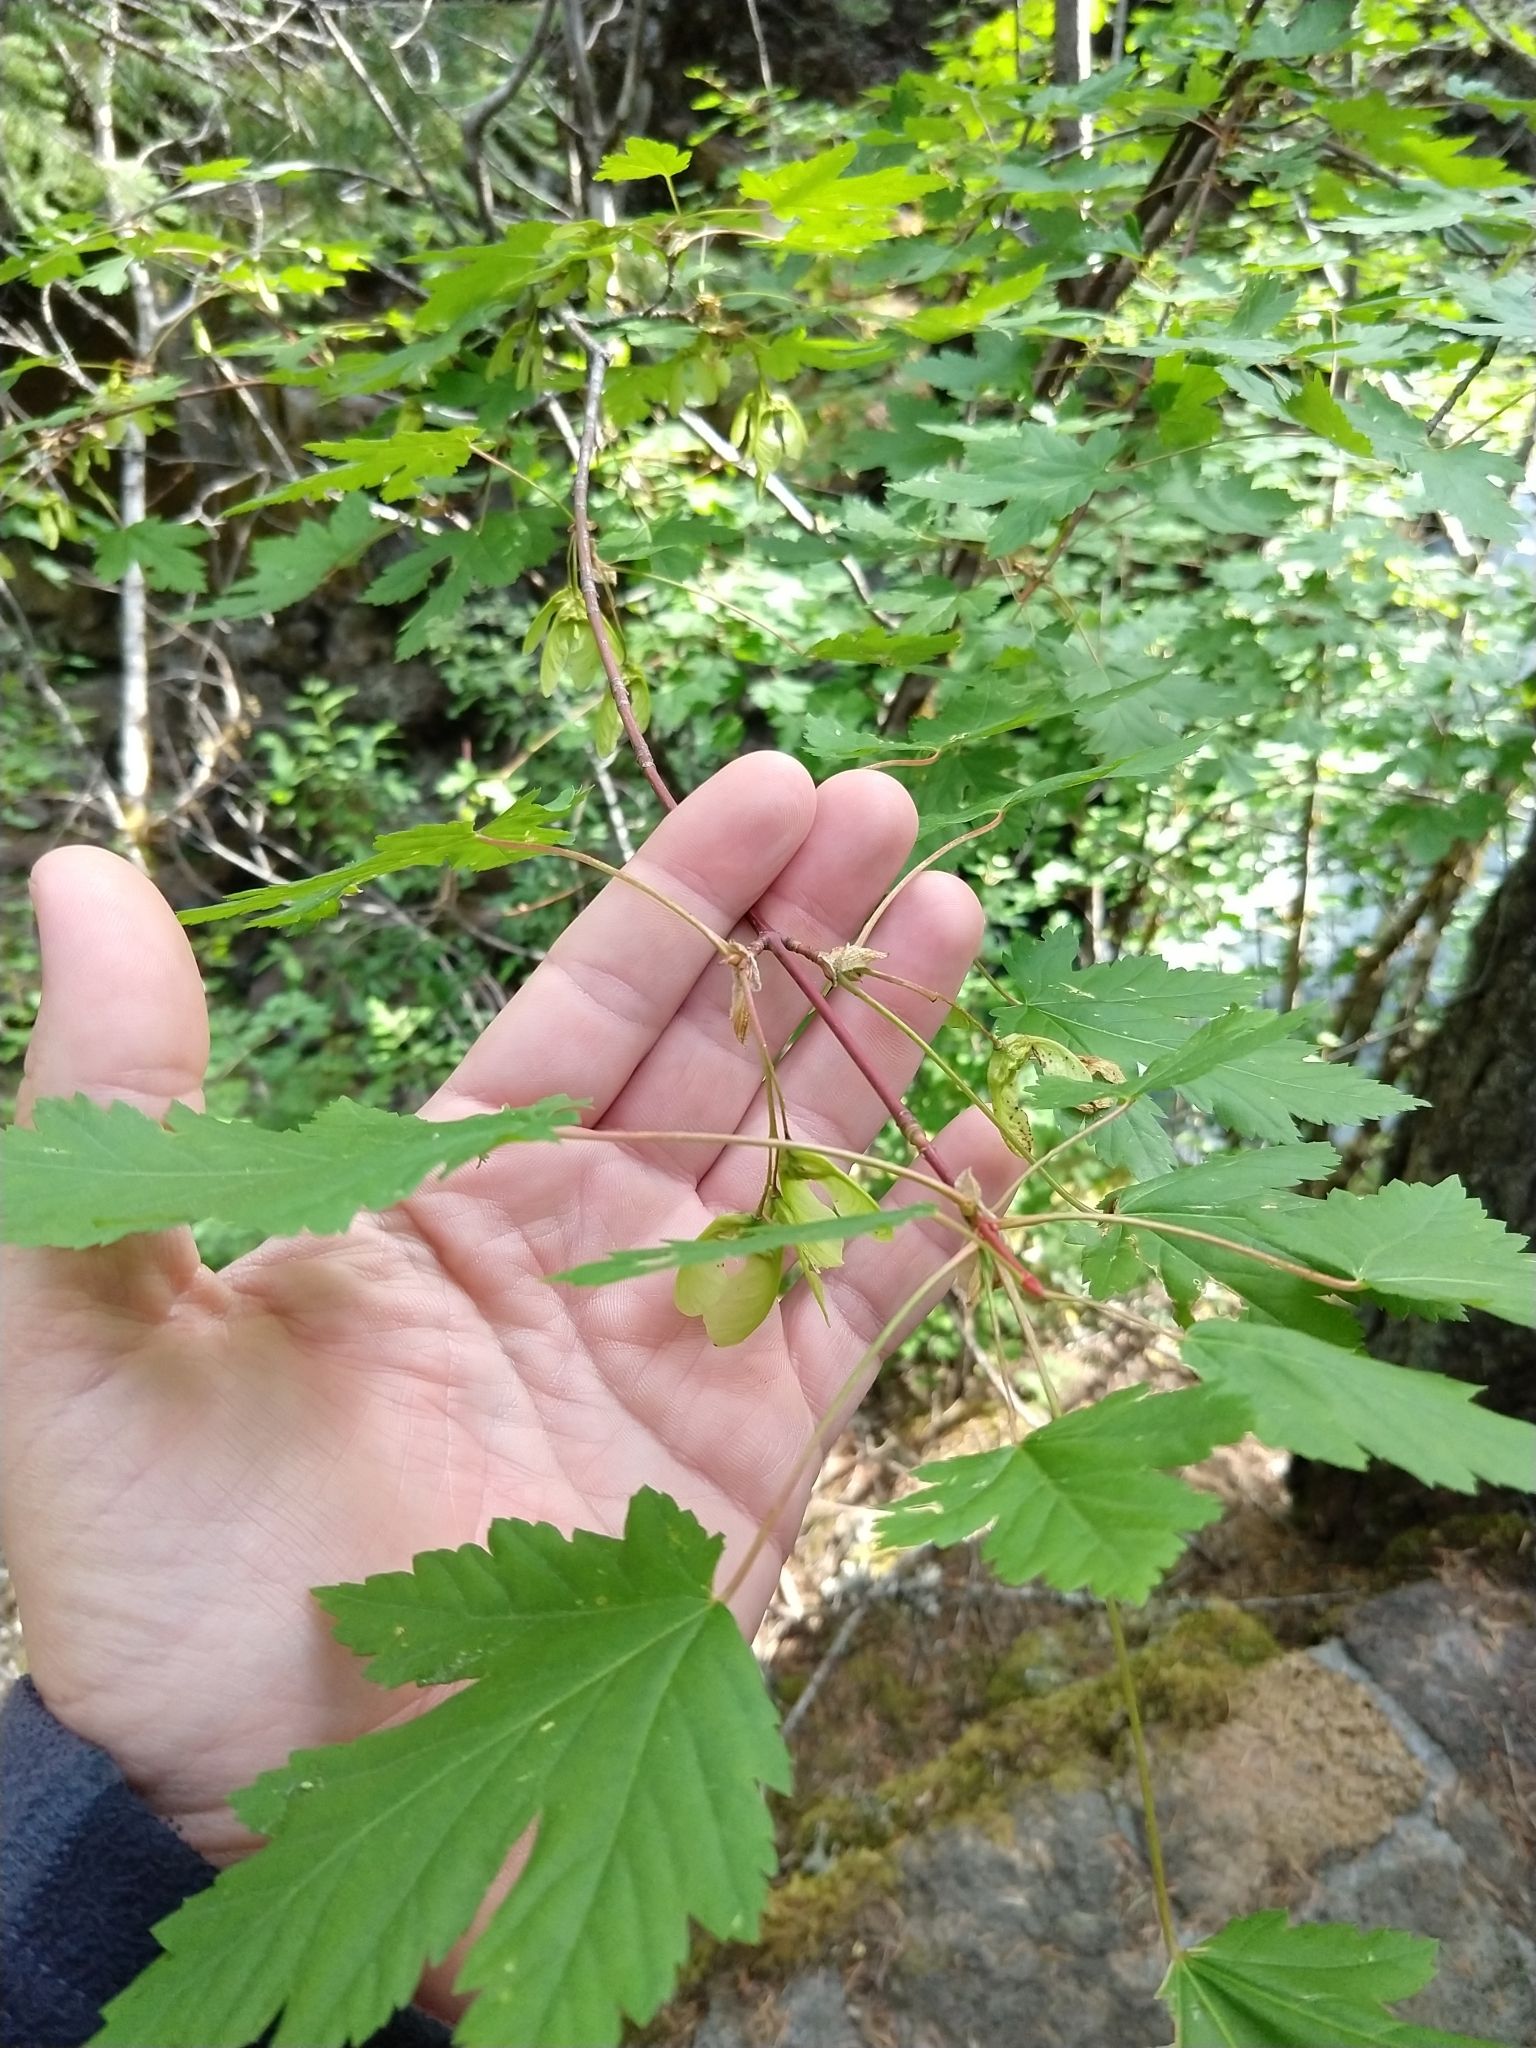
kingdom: Plantae
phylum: Tracheophyta
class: Magnoliopsida
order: Sapindales
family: Sapindaceae
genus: Acer
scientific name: Acer glabrum
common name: Rocky mountain maple
